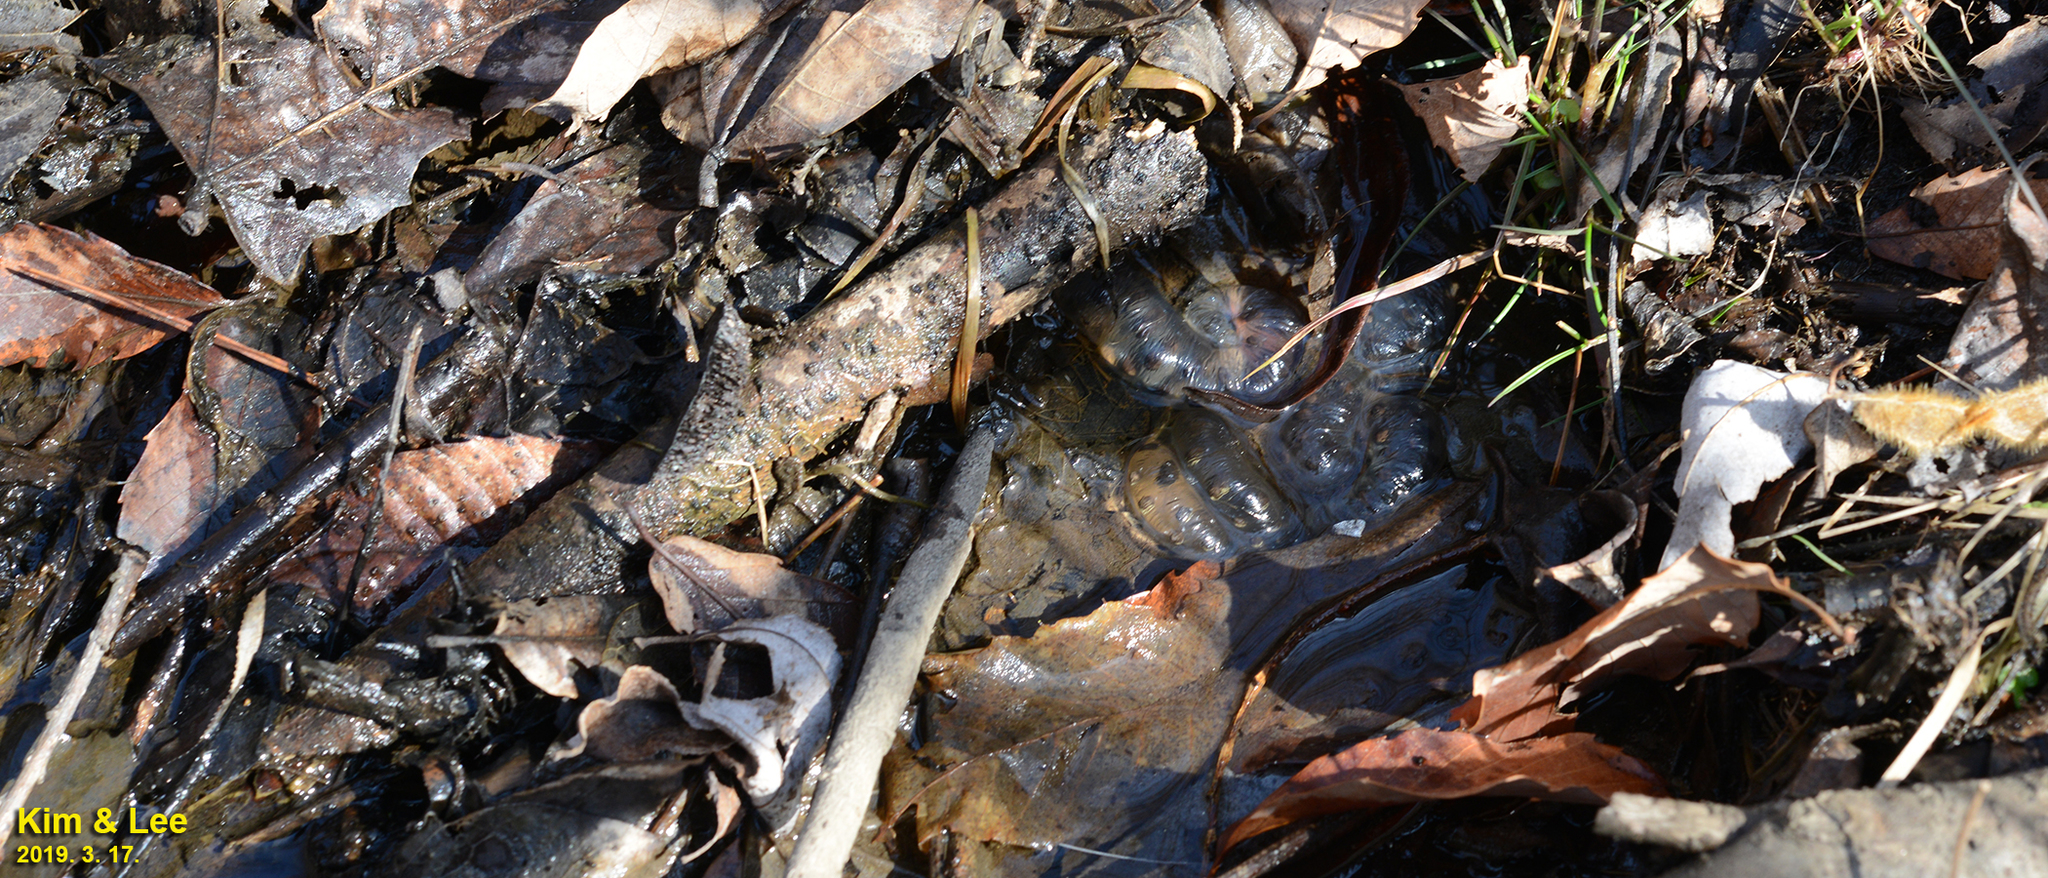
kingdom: Animalia
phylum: Chordata
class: Amphibia
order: Caudata
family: Hynobiidae
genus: Hynobius
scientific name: Hynobius leechii
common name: Gensan salamander
